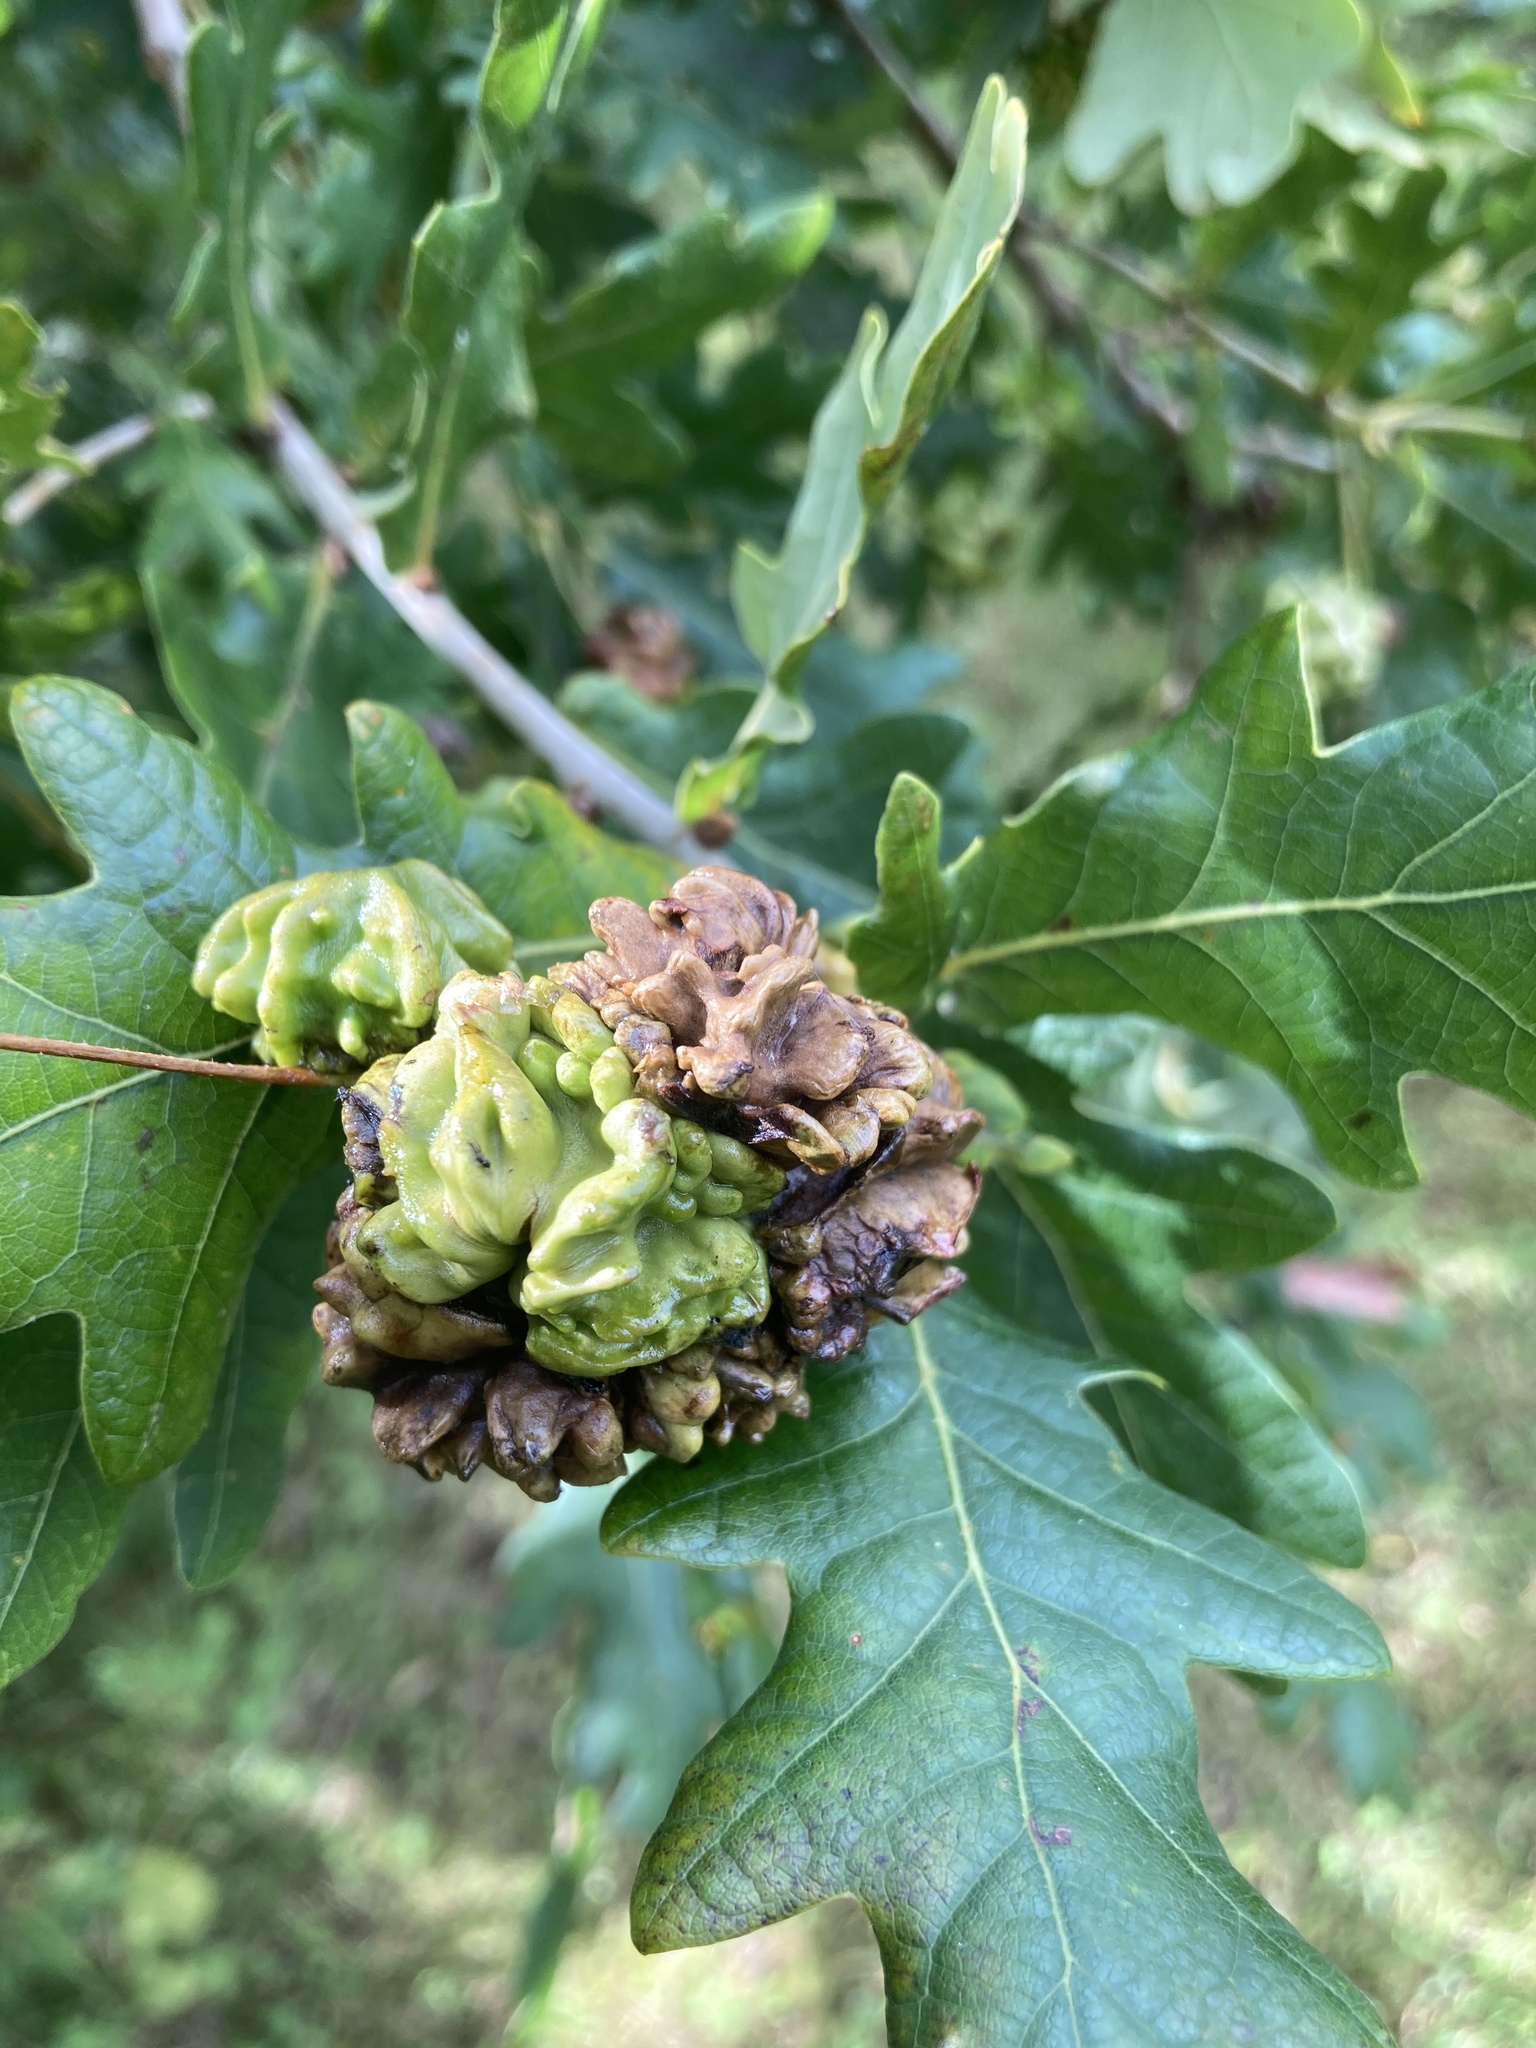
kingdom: Animalia
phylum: Arthropoda
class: Insecta
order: Hymenoptera
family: Cynipidae
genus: Andricus
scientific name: Andricus quercuscalicis
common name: Knopper gall
